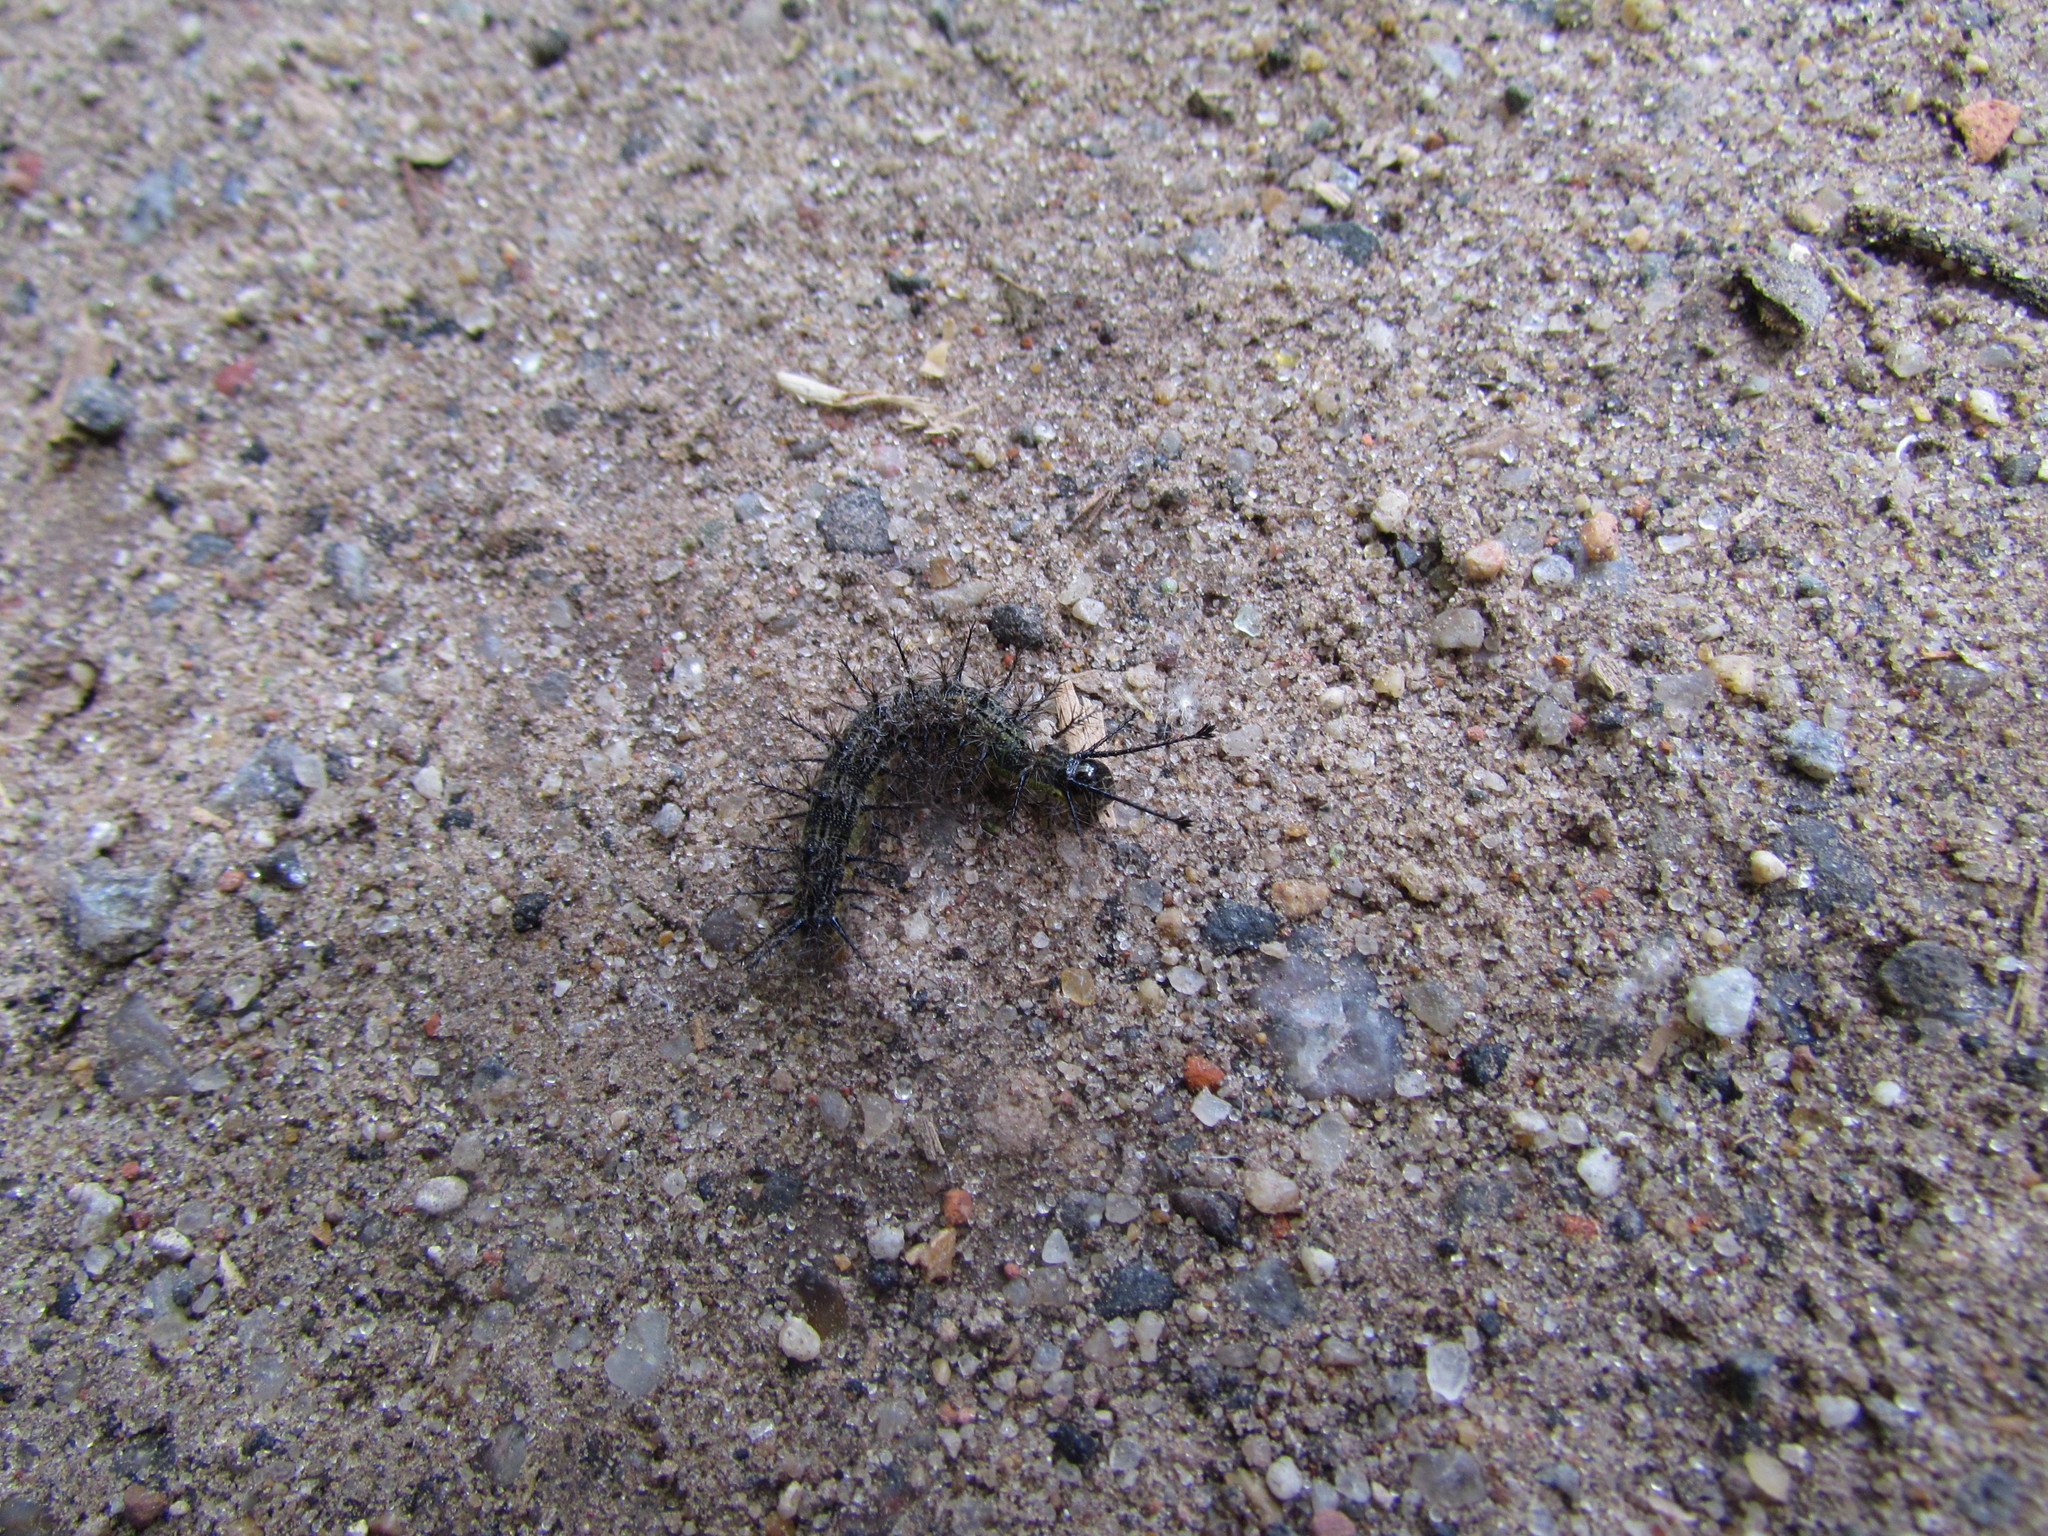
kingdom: Animalia
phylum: Arthropoda
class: Insecta
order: Lepidoptera
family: Saturniidae
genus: Hylesia
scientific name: Hylesia nigricans
